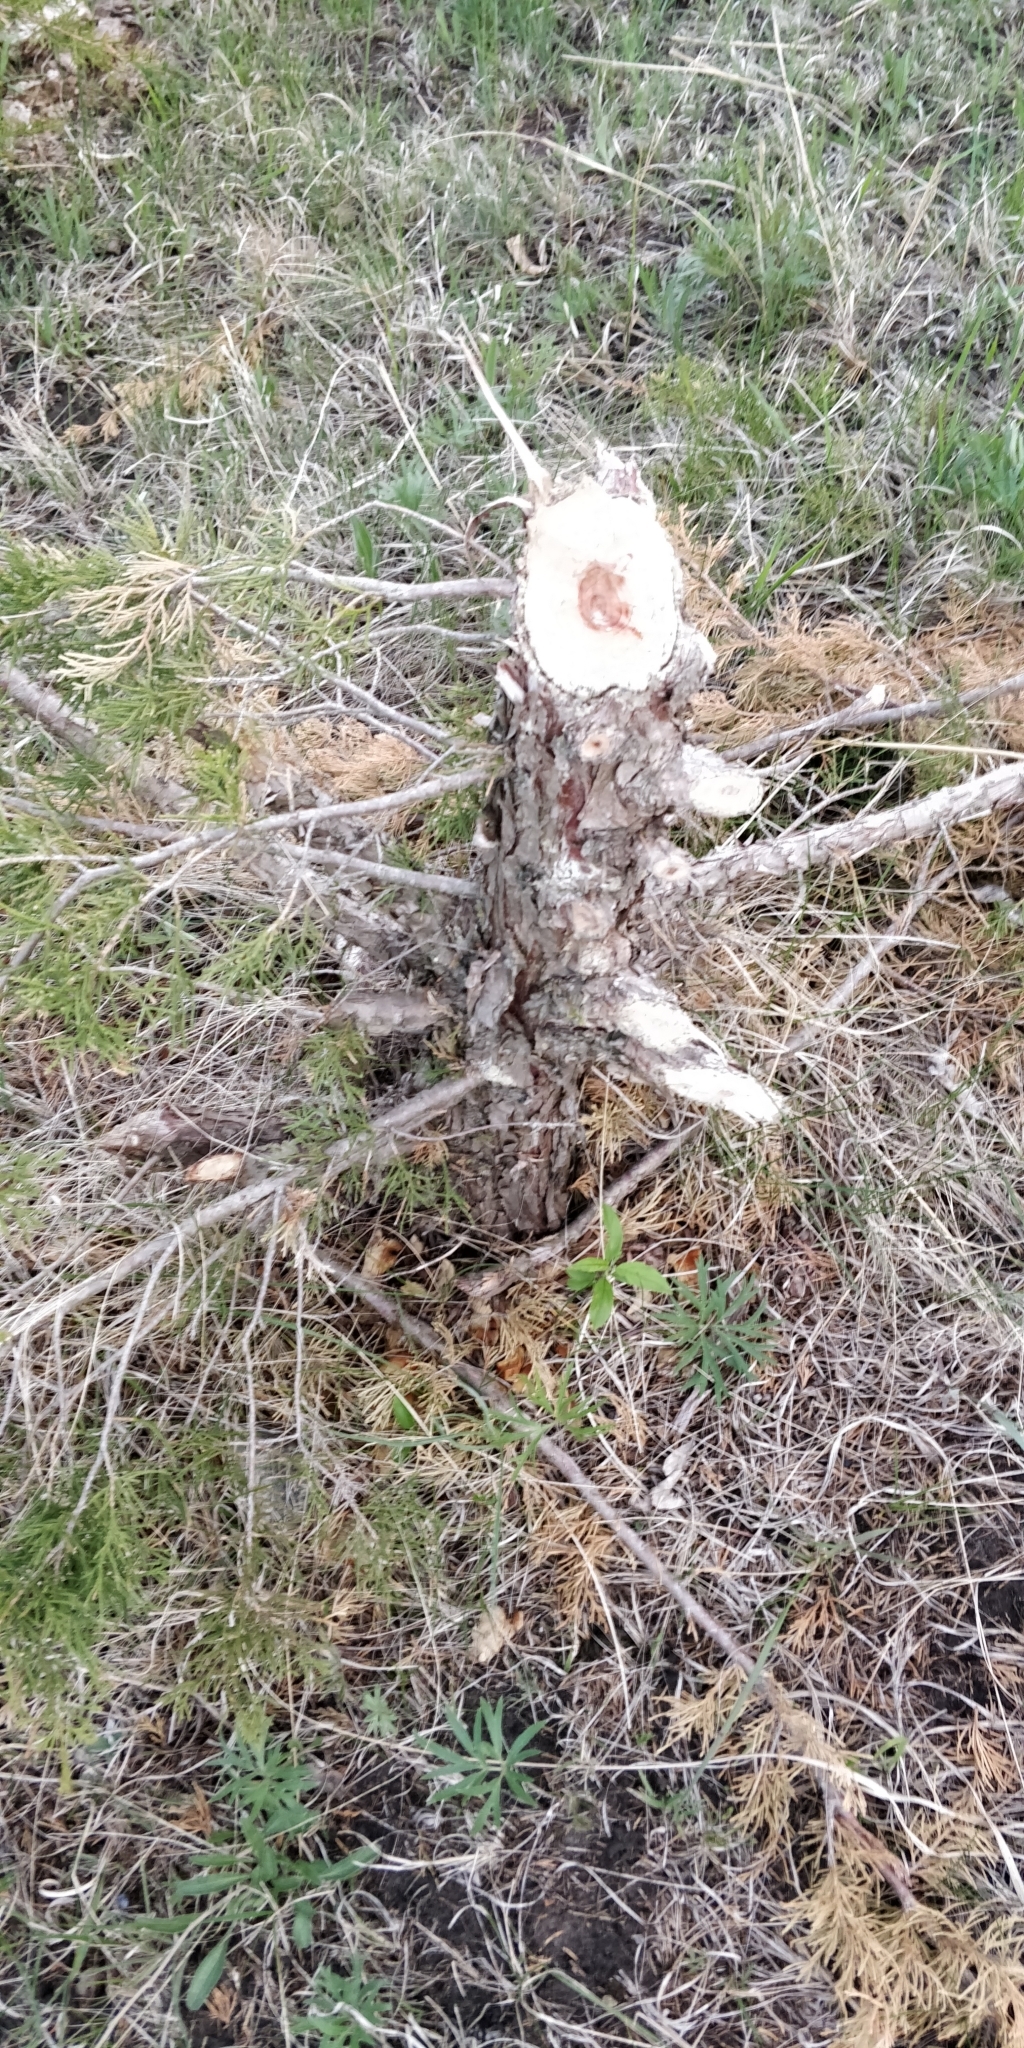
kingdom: Animalia
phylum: Chordata
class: Mammalia
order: Rodentia
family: Castoridae
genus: Castor
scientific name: Castor canadensis
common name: American beaver
